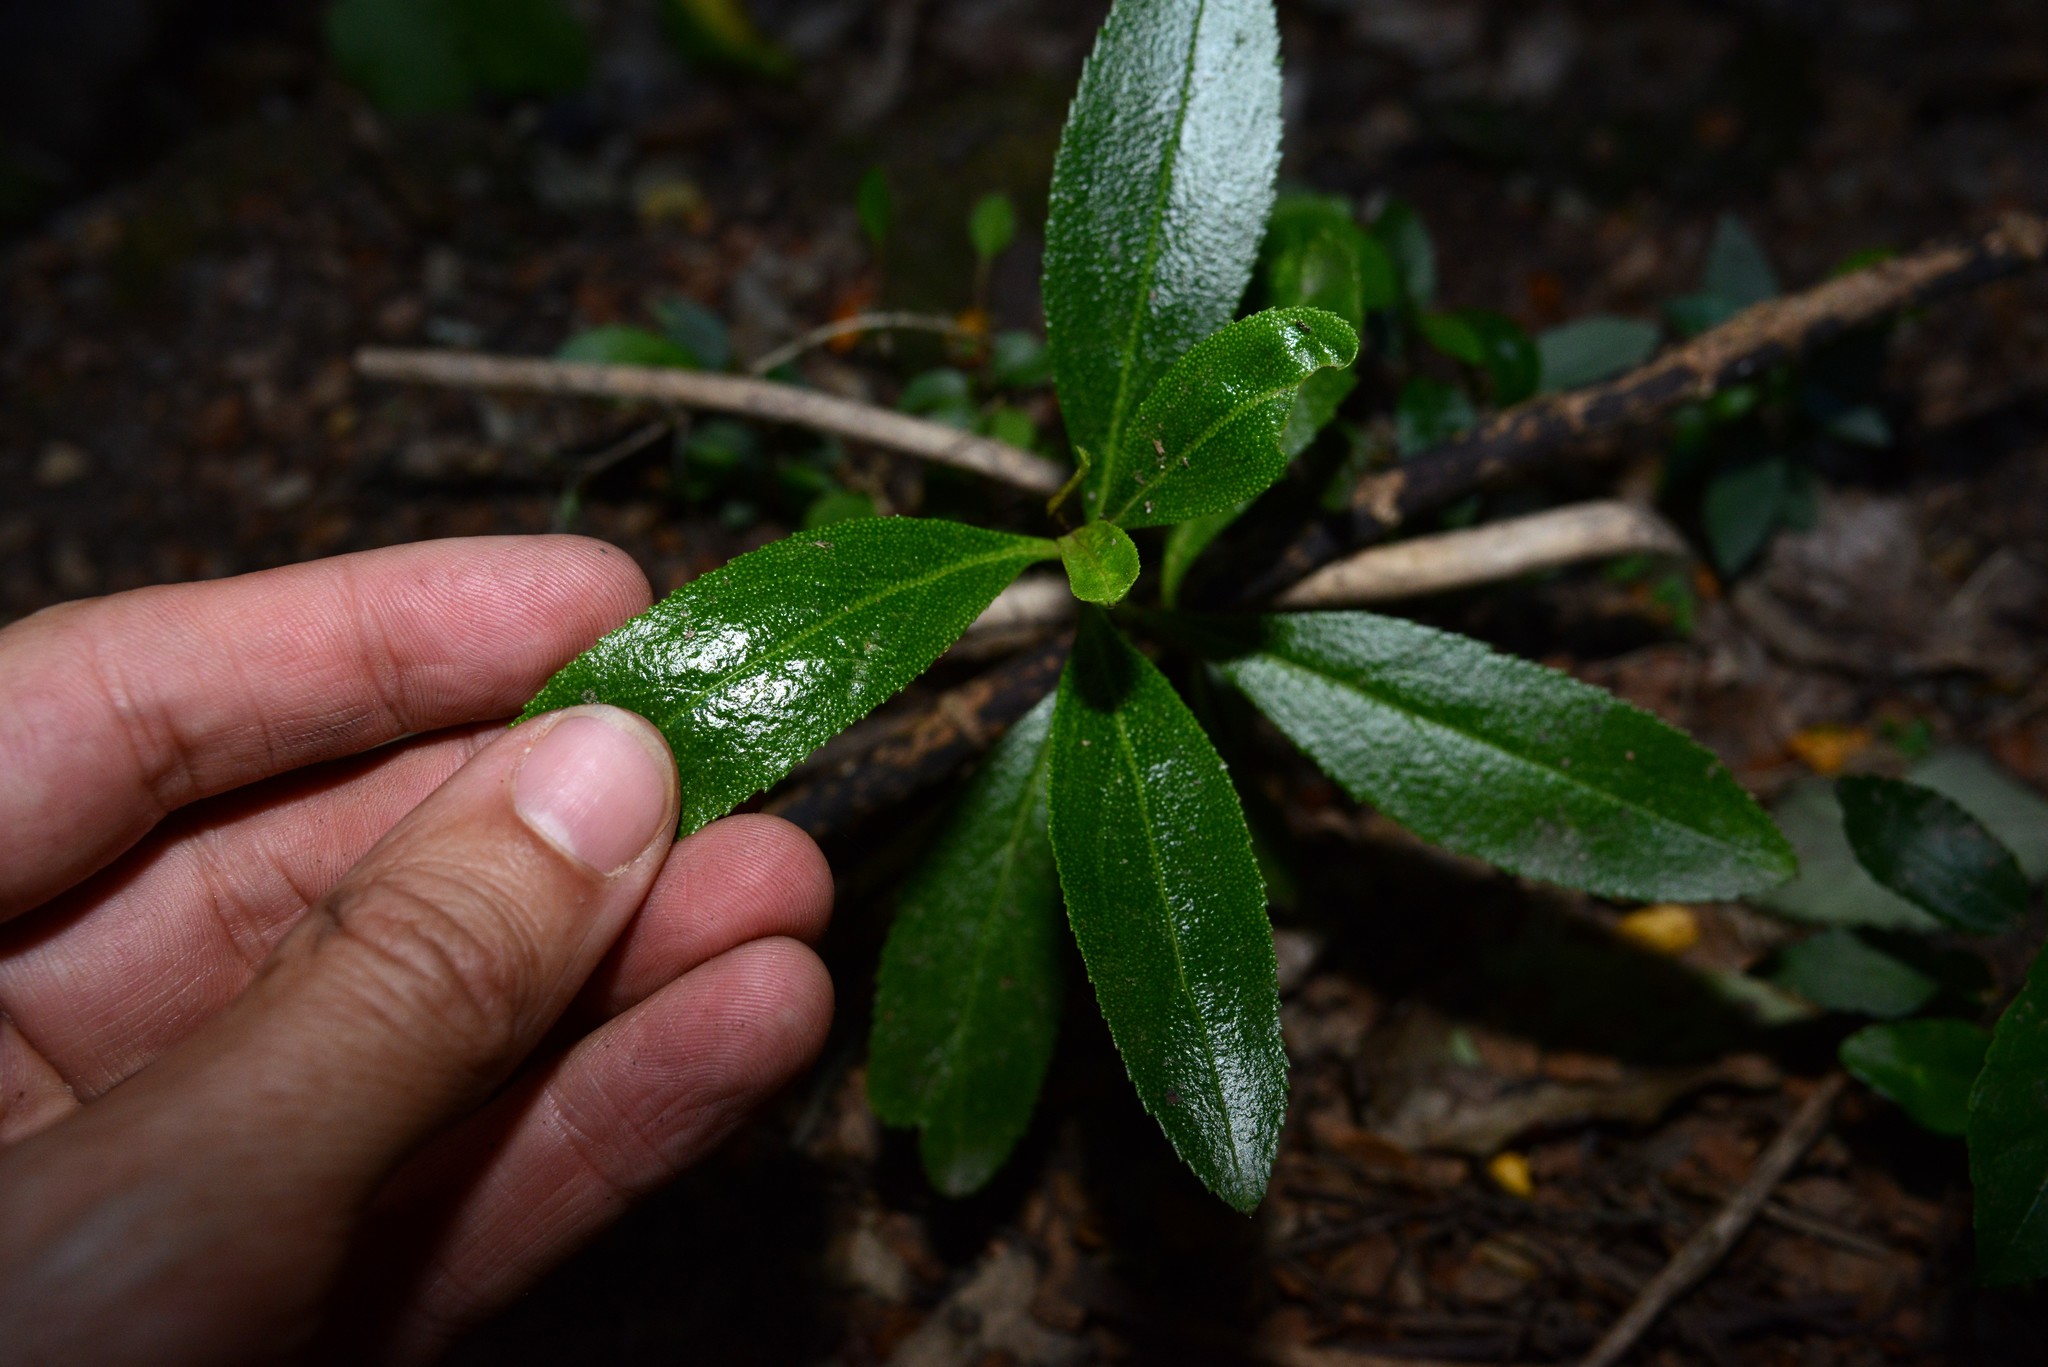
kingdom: Plantae
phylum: Tracheophyta
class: Magnoliopsida
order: Lamiales
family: Scrophulariaceae
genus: Myoporum
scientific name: Myoporum laetum
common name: Ngaio tree
